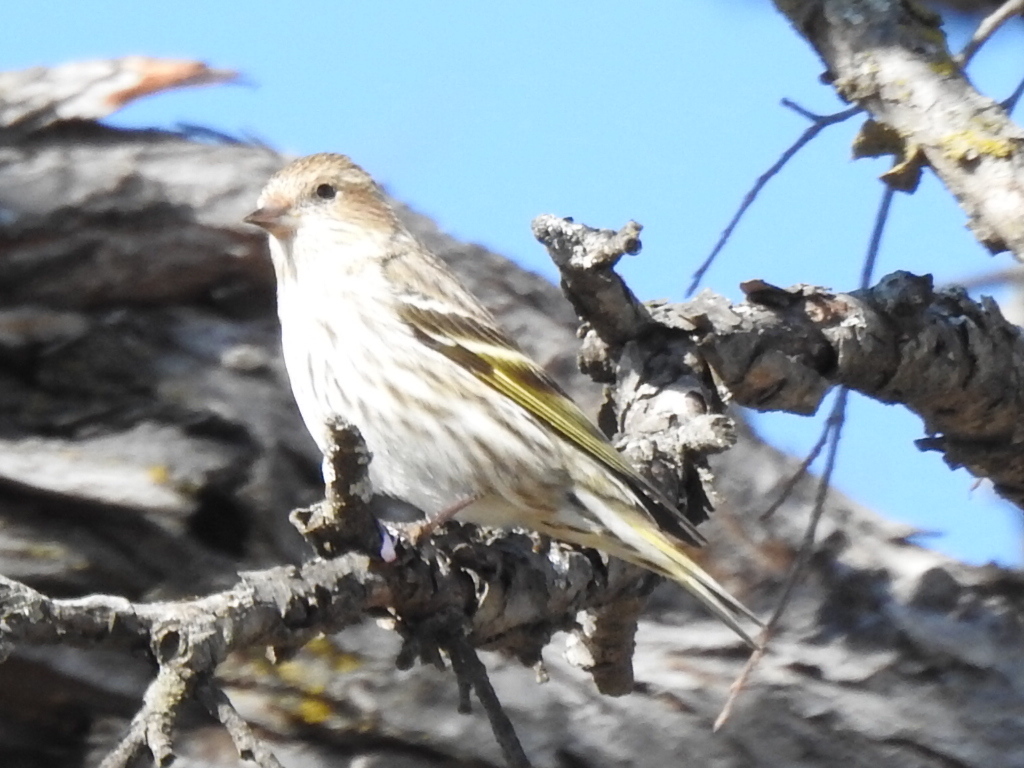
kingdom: Animalia
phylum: Chordata
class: Aves
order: Passeriformes
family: Fringillidae
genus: Spinus
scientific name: Spinus pinus
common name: Pine siskin
